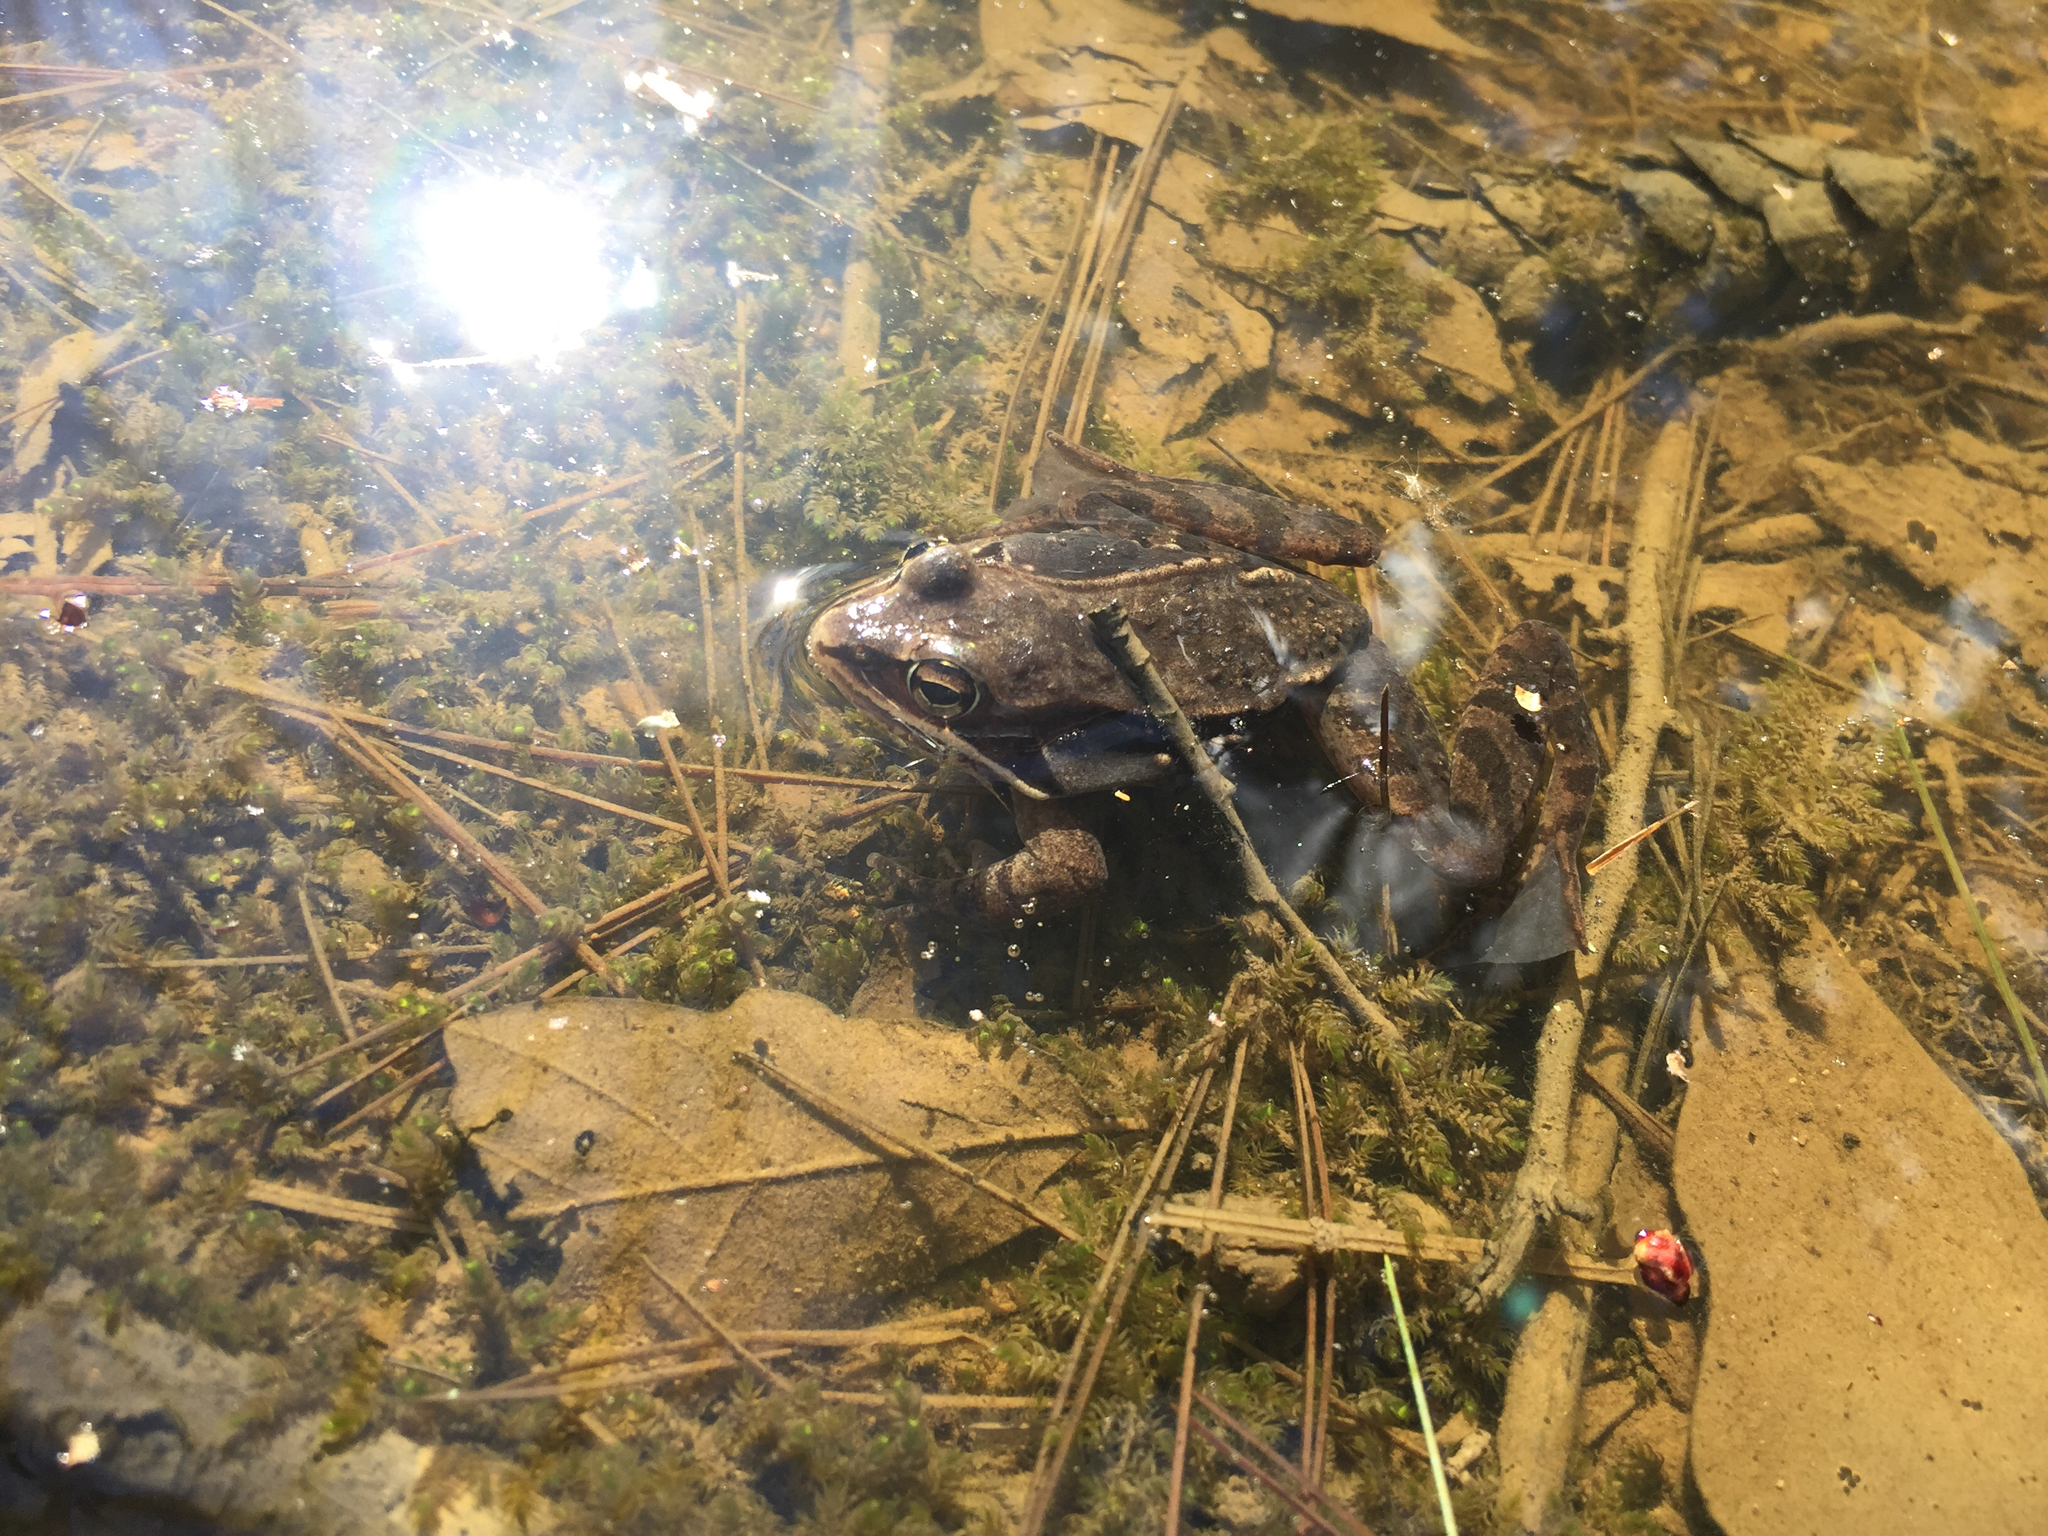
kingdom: Animalia
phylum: Chordata
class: Amphibia
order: Anura
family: Ranidae
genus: Lithobates
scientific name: Lithobates sylvaticus
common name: Wood frog
